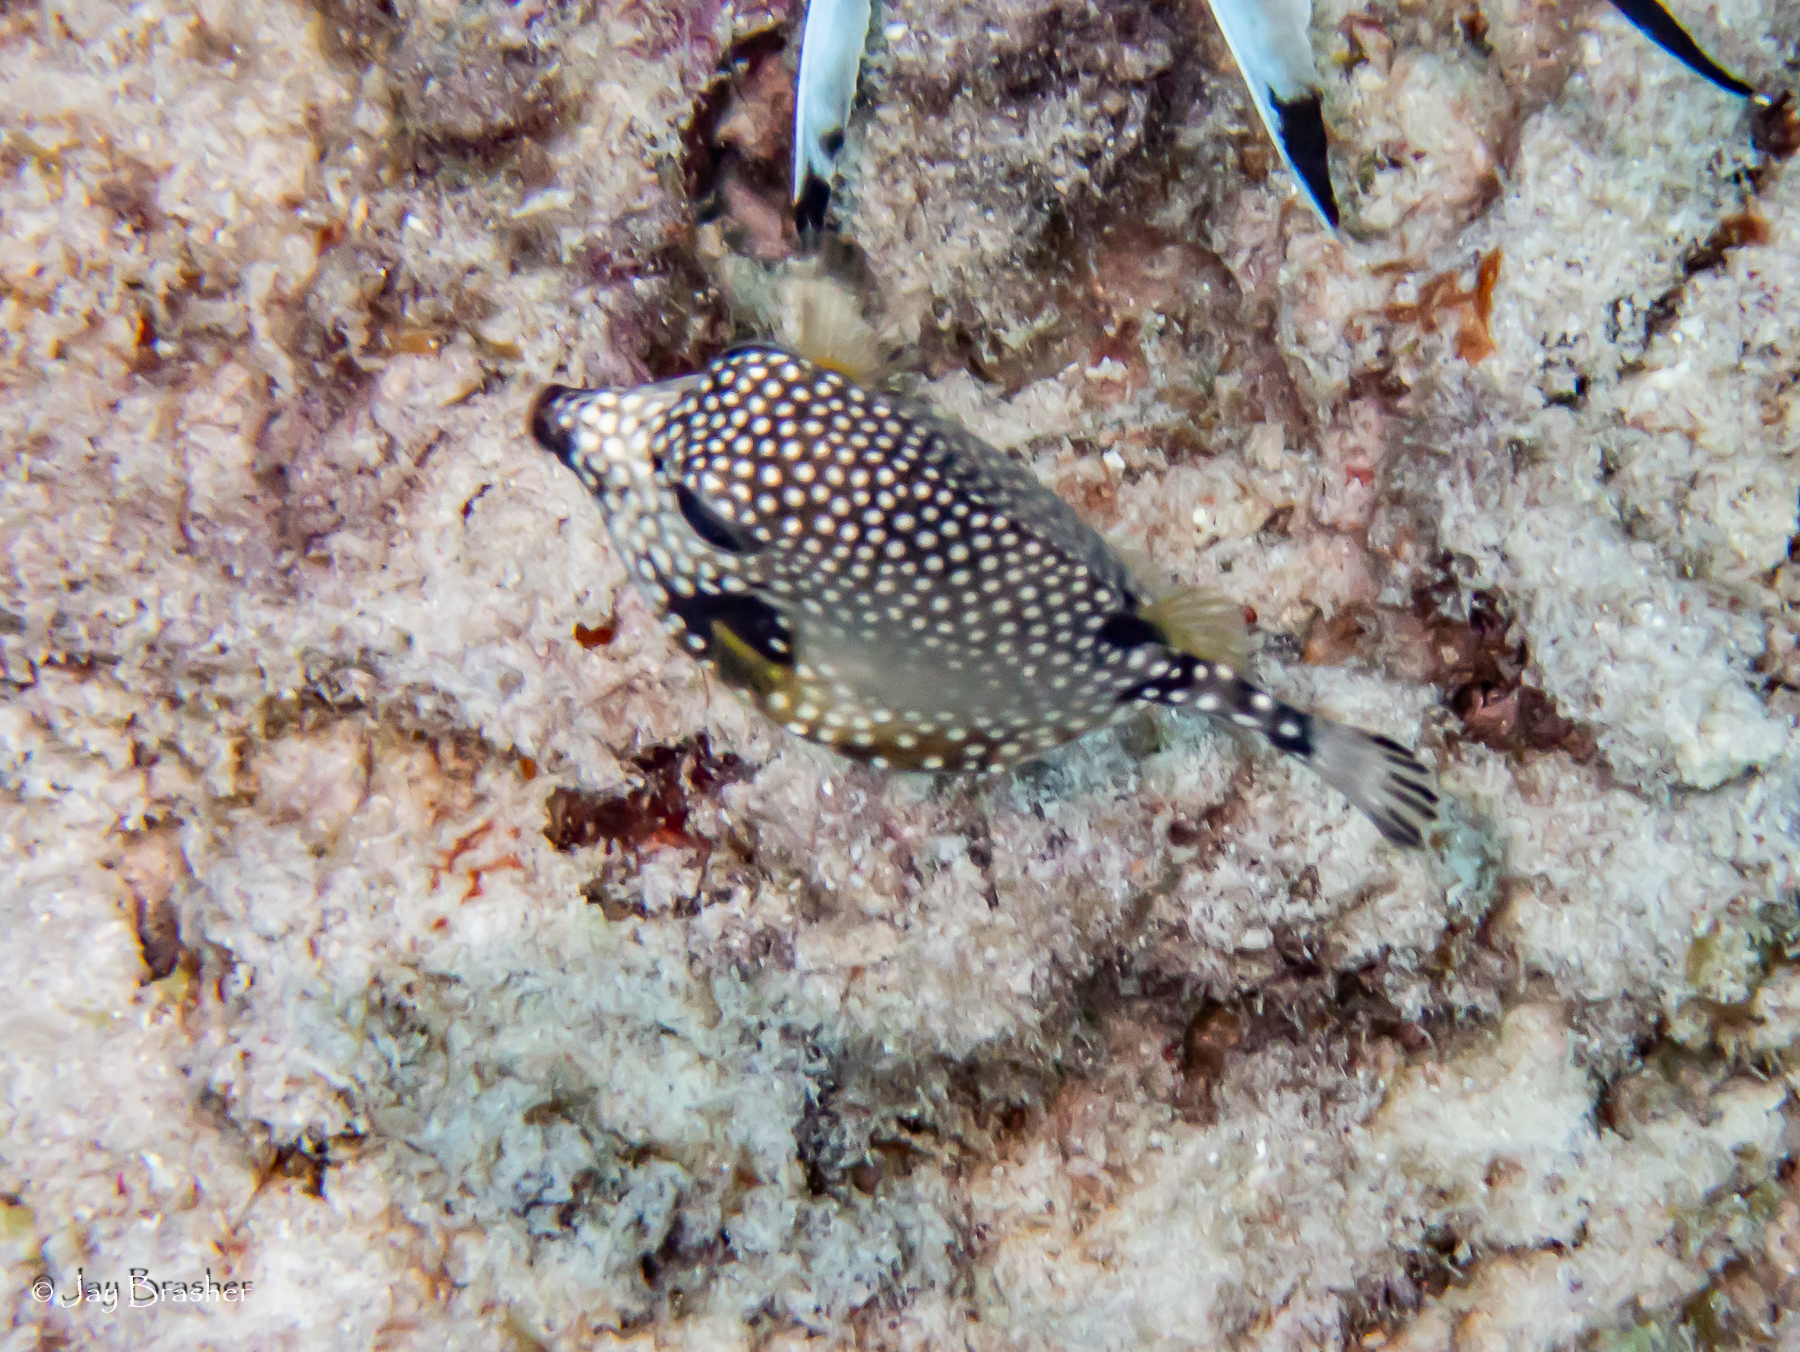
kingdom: Animalia
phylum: Chordata
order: Tetraodontiformes
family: Ostraciidae
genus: Lactophrys
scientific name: Lactophrys triqueter
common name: Smooth trunkfish
